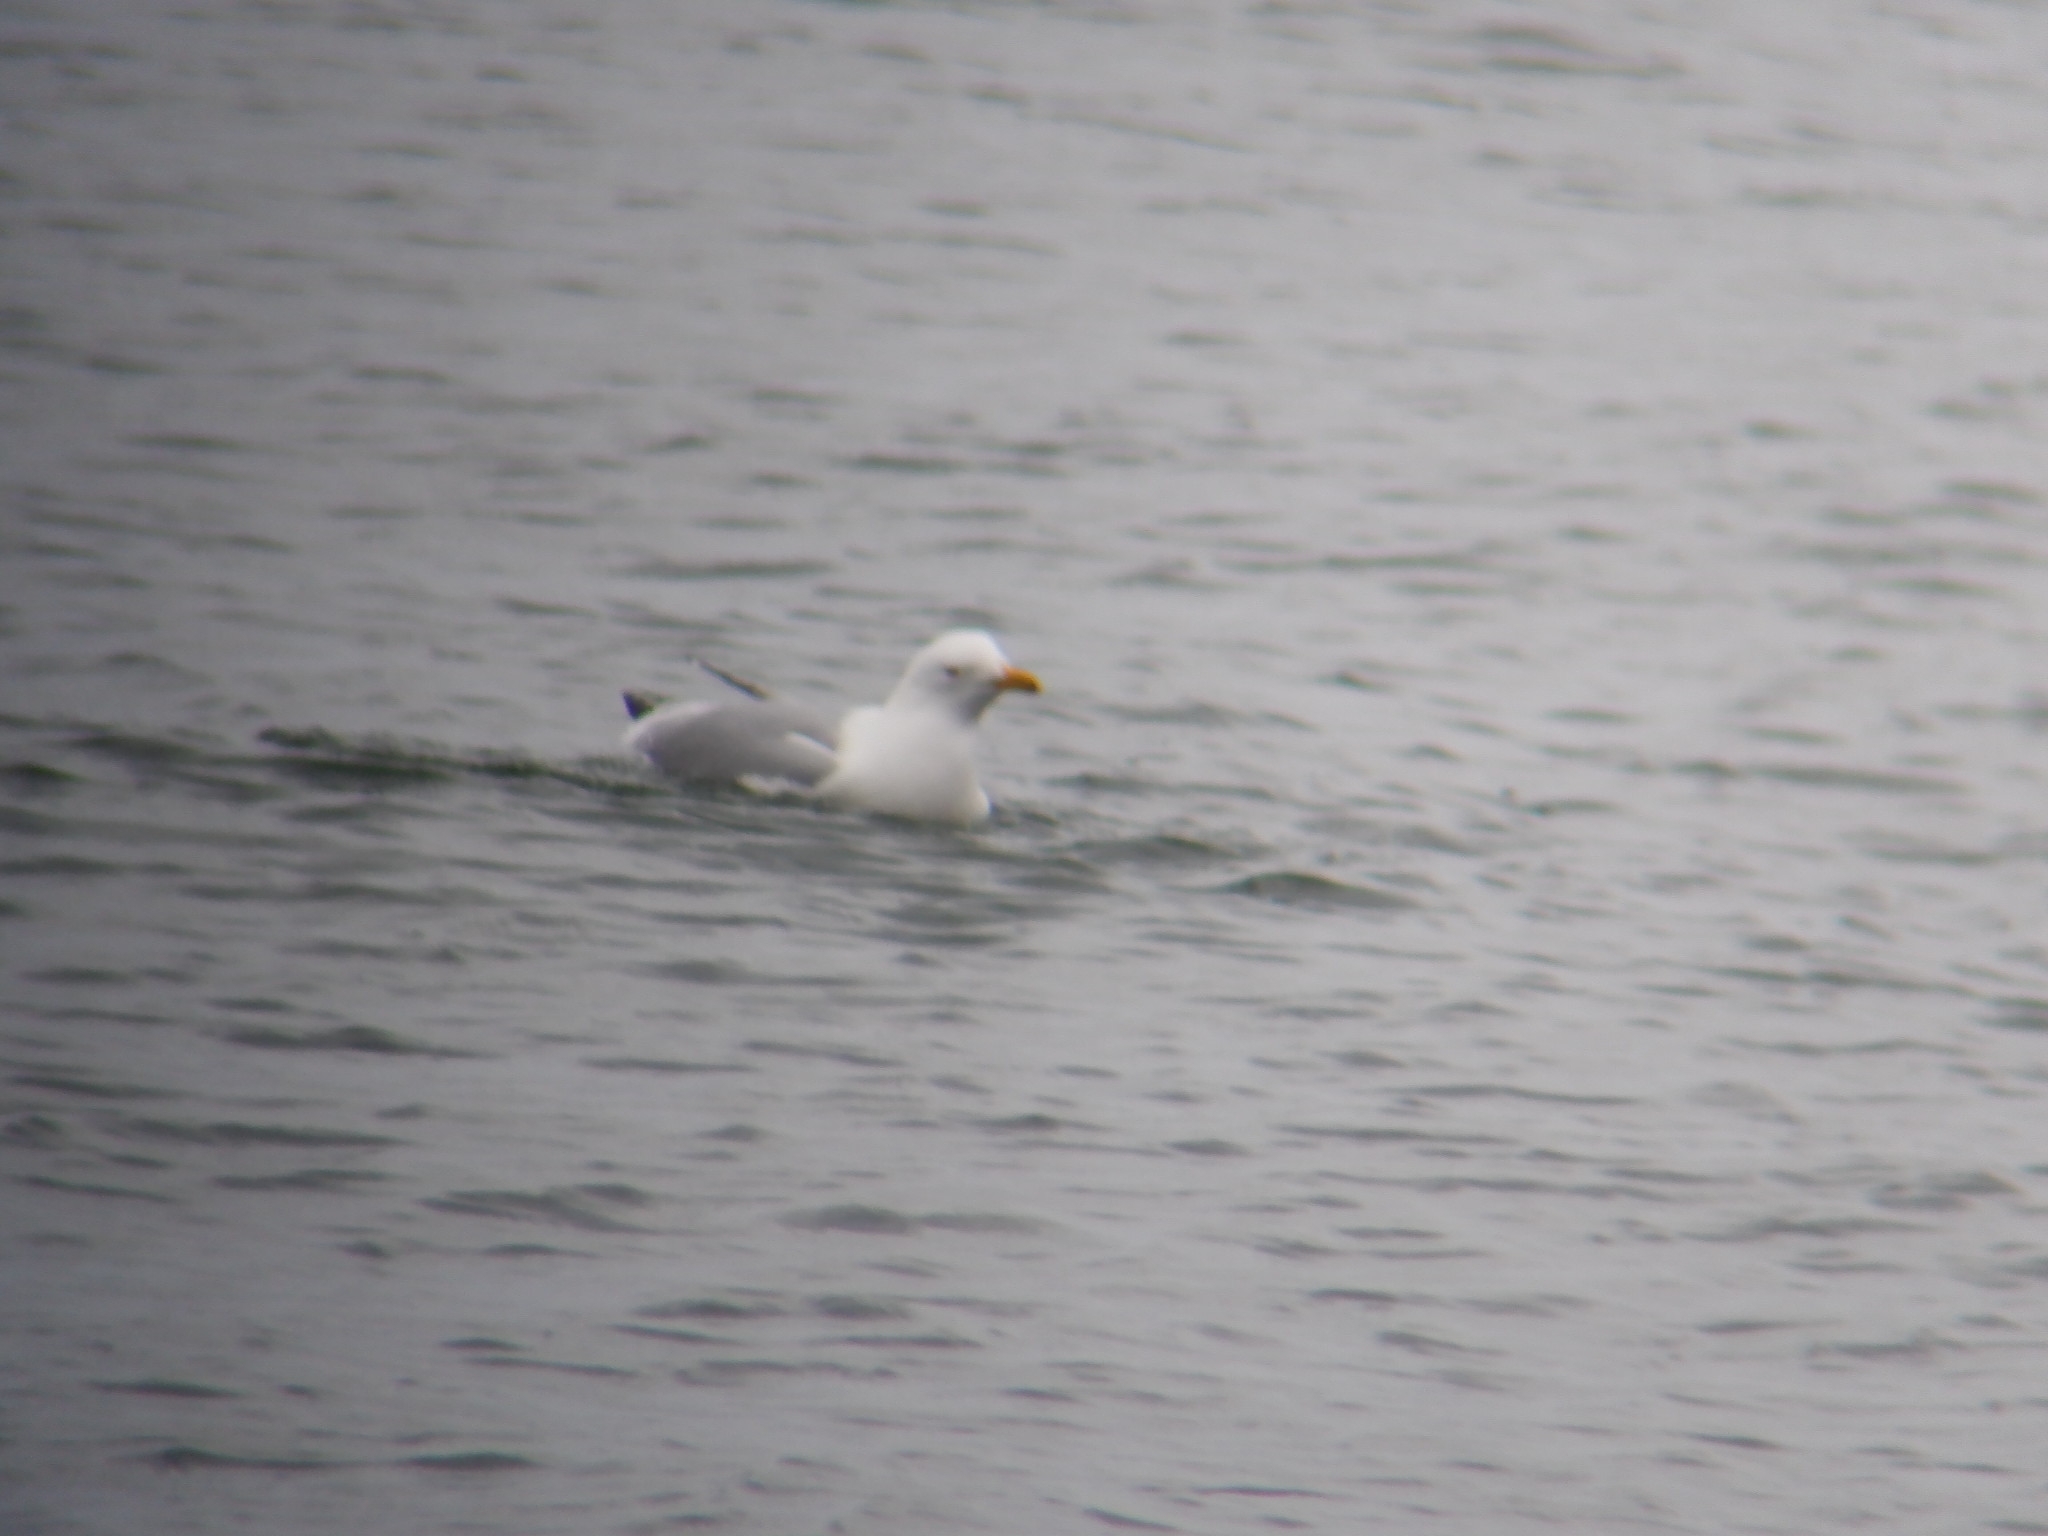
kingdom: Animalia
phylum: Chordata
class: Aves
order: Charadriiformes
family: Laridae
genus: Larus
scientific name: Larus argentatus
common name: Herring gull
